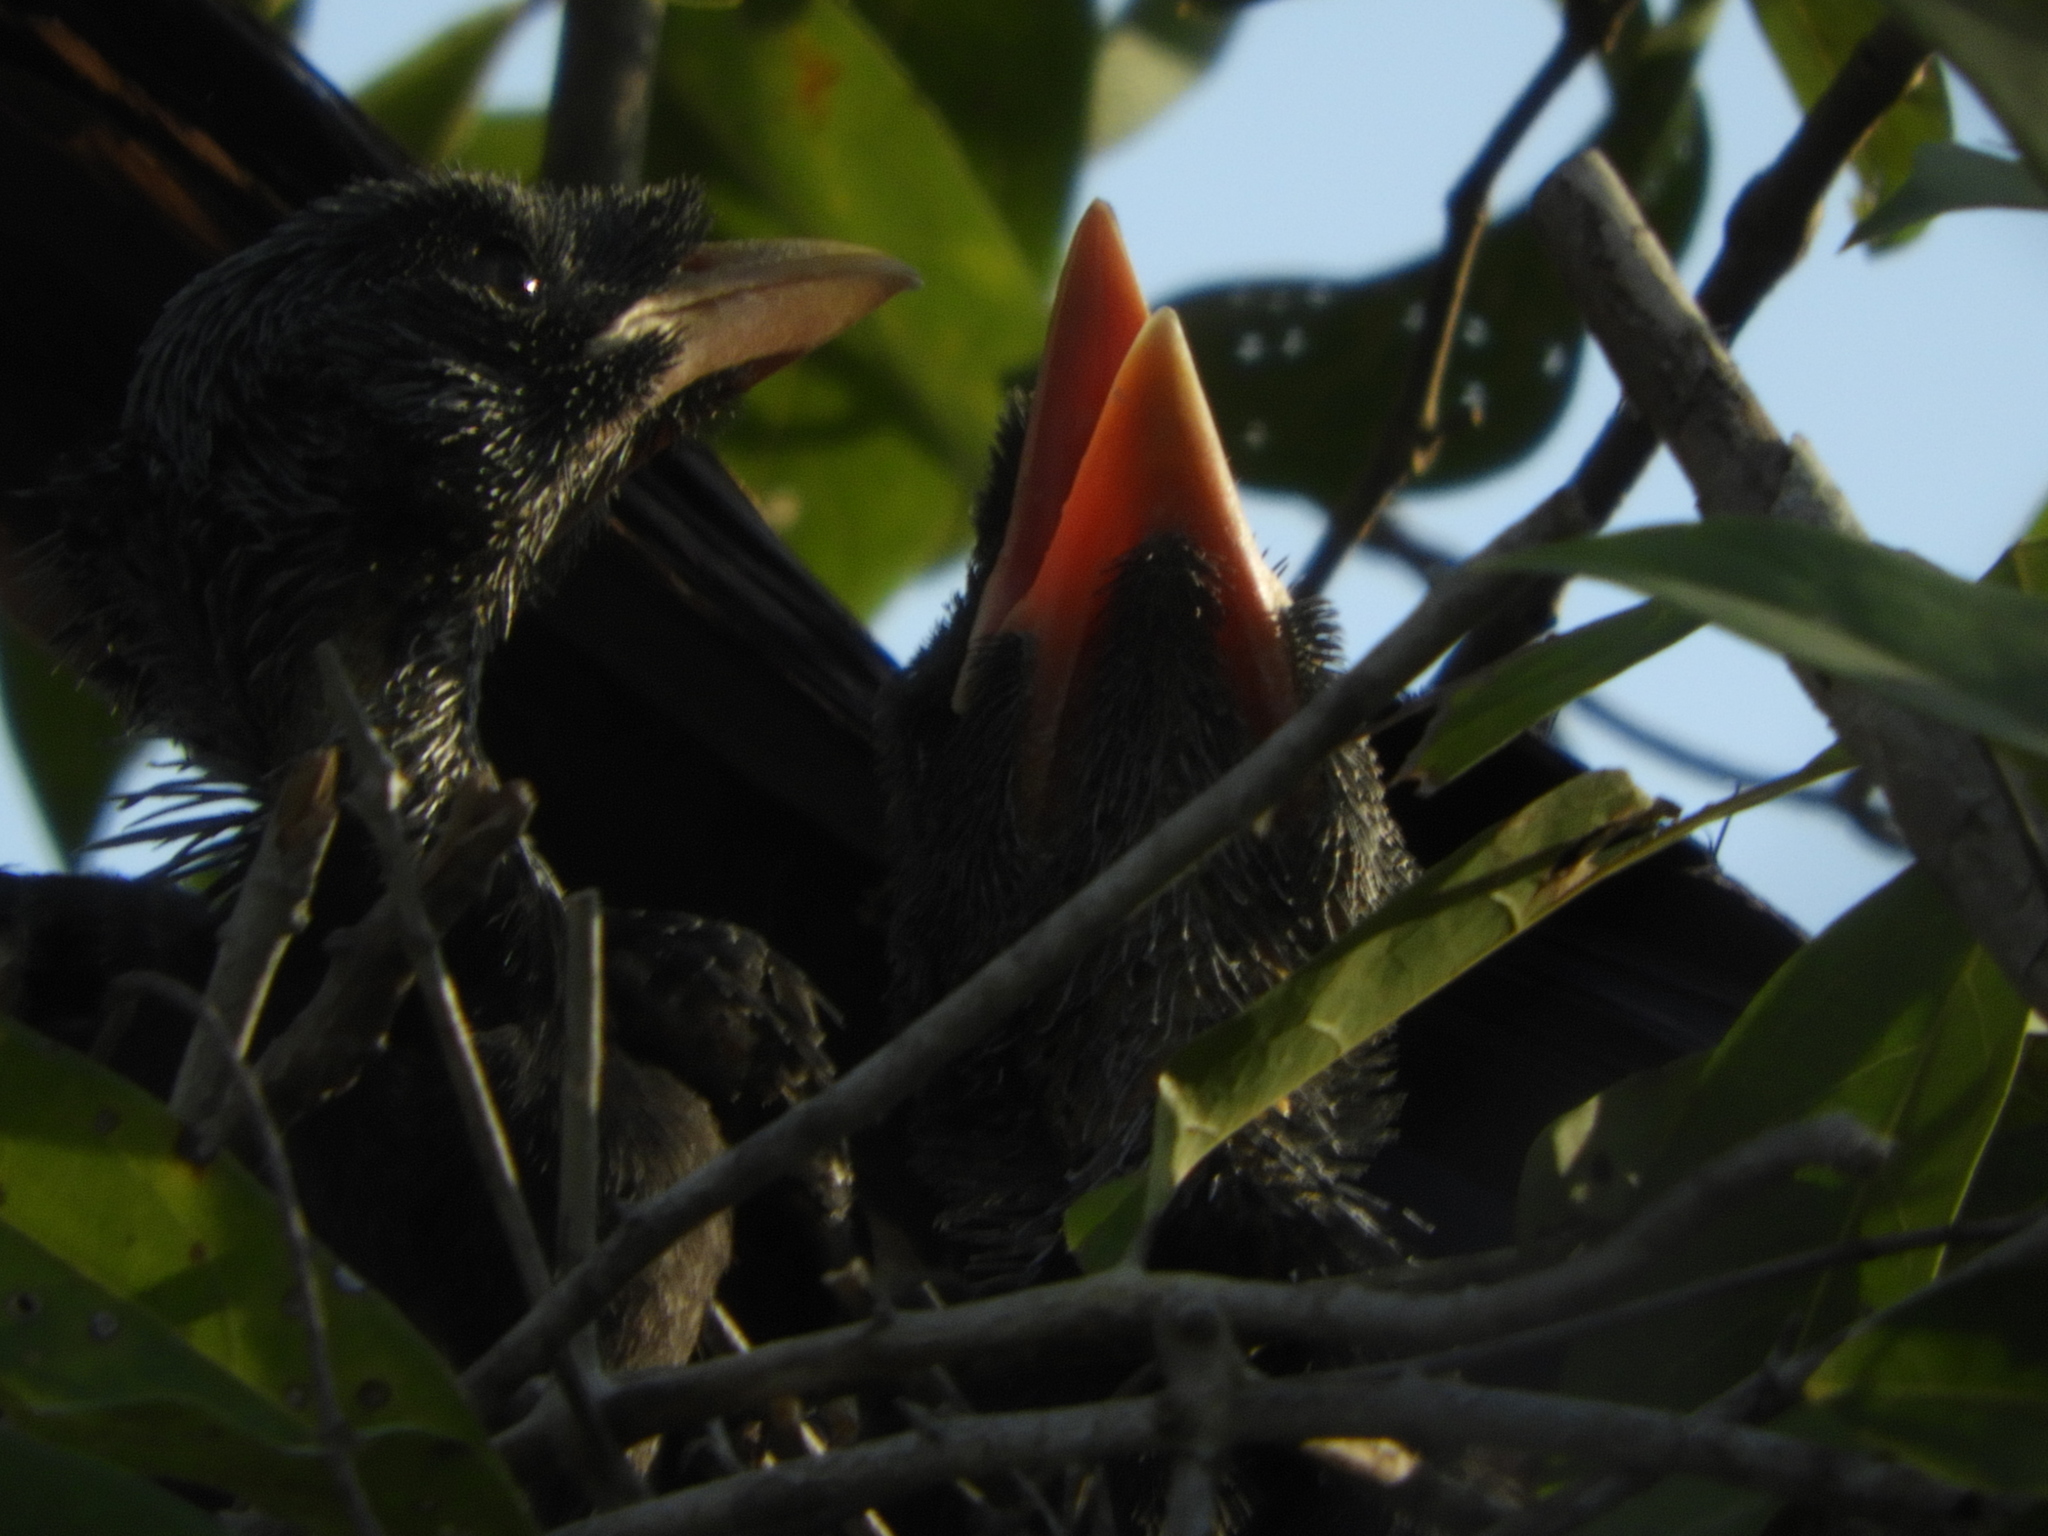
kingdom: Animalia
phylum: Chordata
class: Aves
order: Passeriformes
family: Corvidae
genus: Cyanocorax
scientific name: Cyanocorax beecheii
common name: Purplish-backed jay
